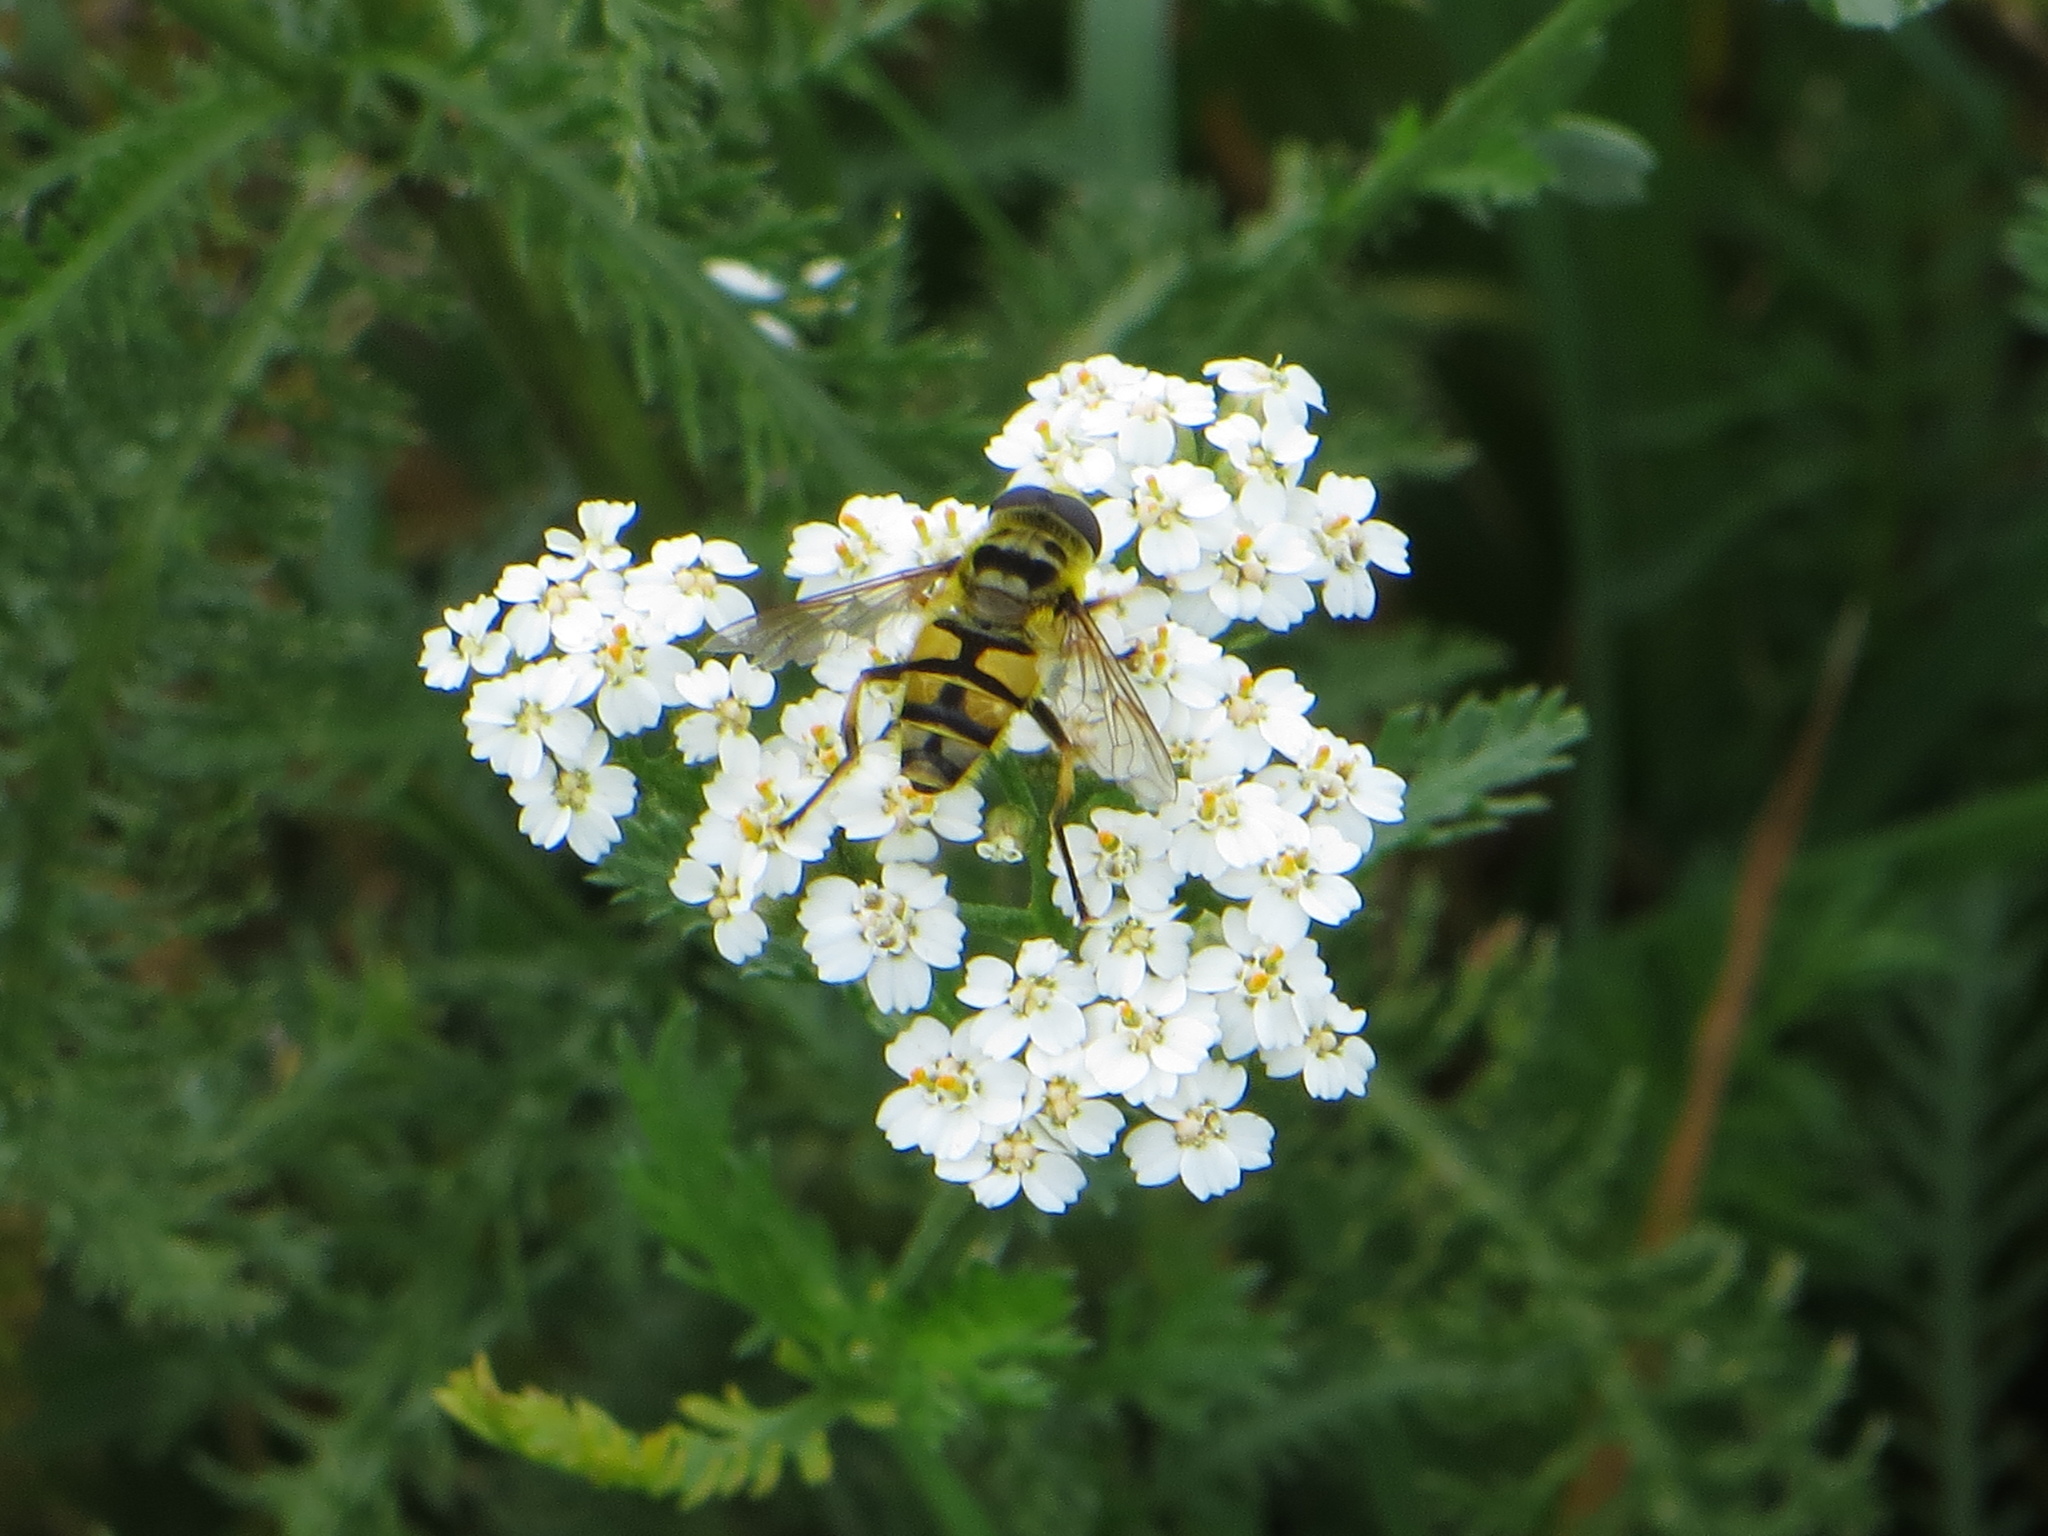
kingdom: Animalia
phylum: Arthropoda
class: Insecta
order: Diptera
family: Syrphidae
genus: Myathropa
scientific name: Myathropa florea
